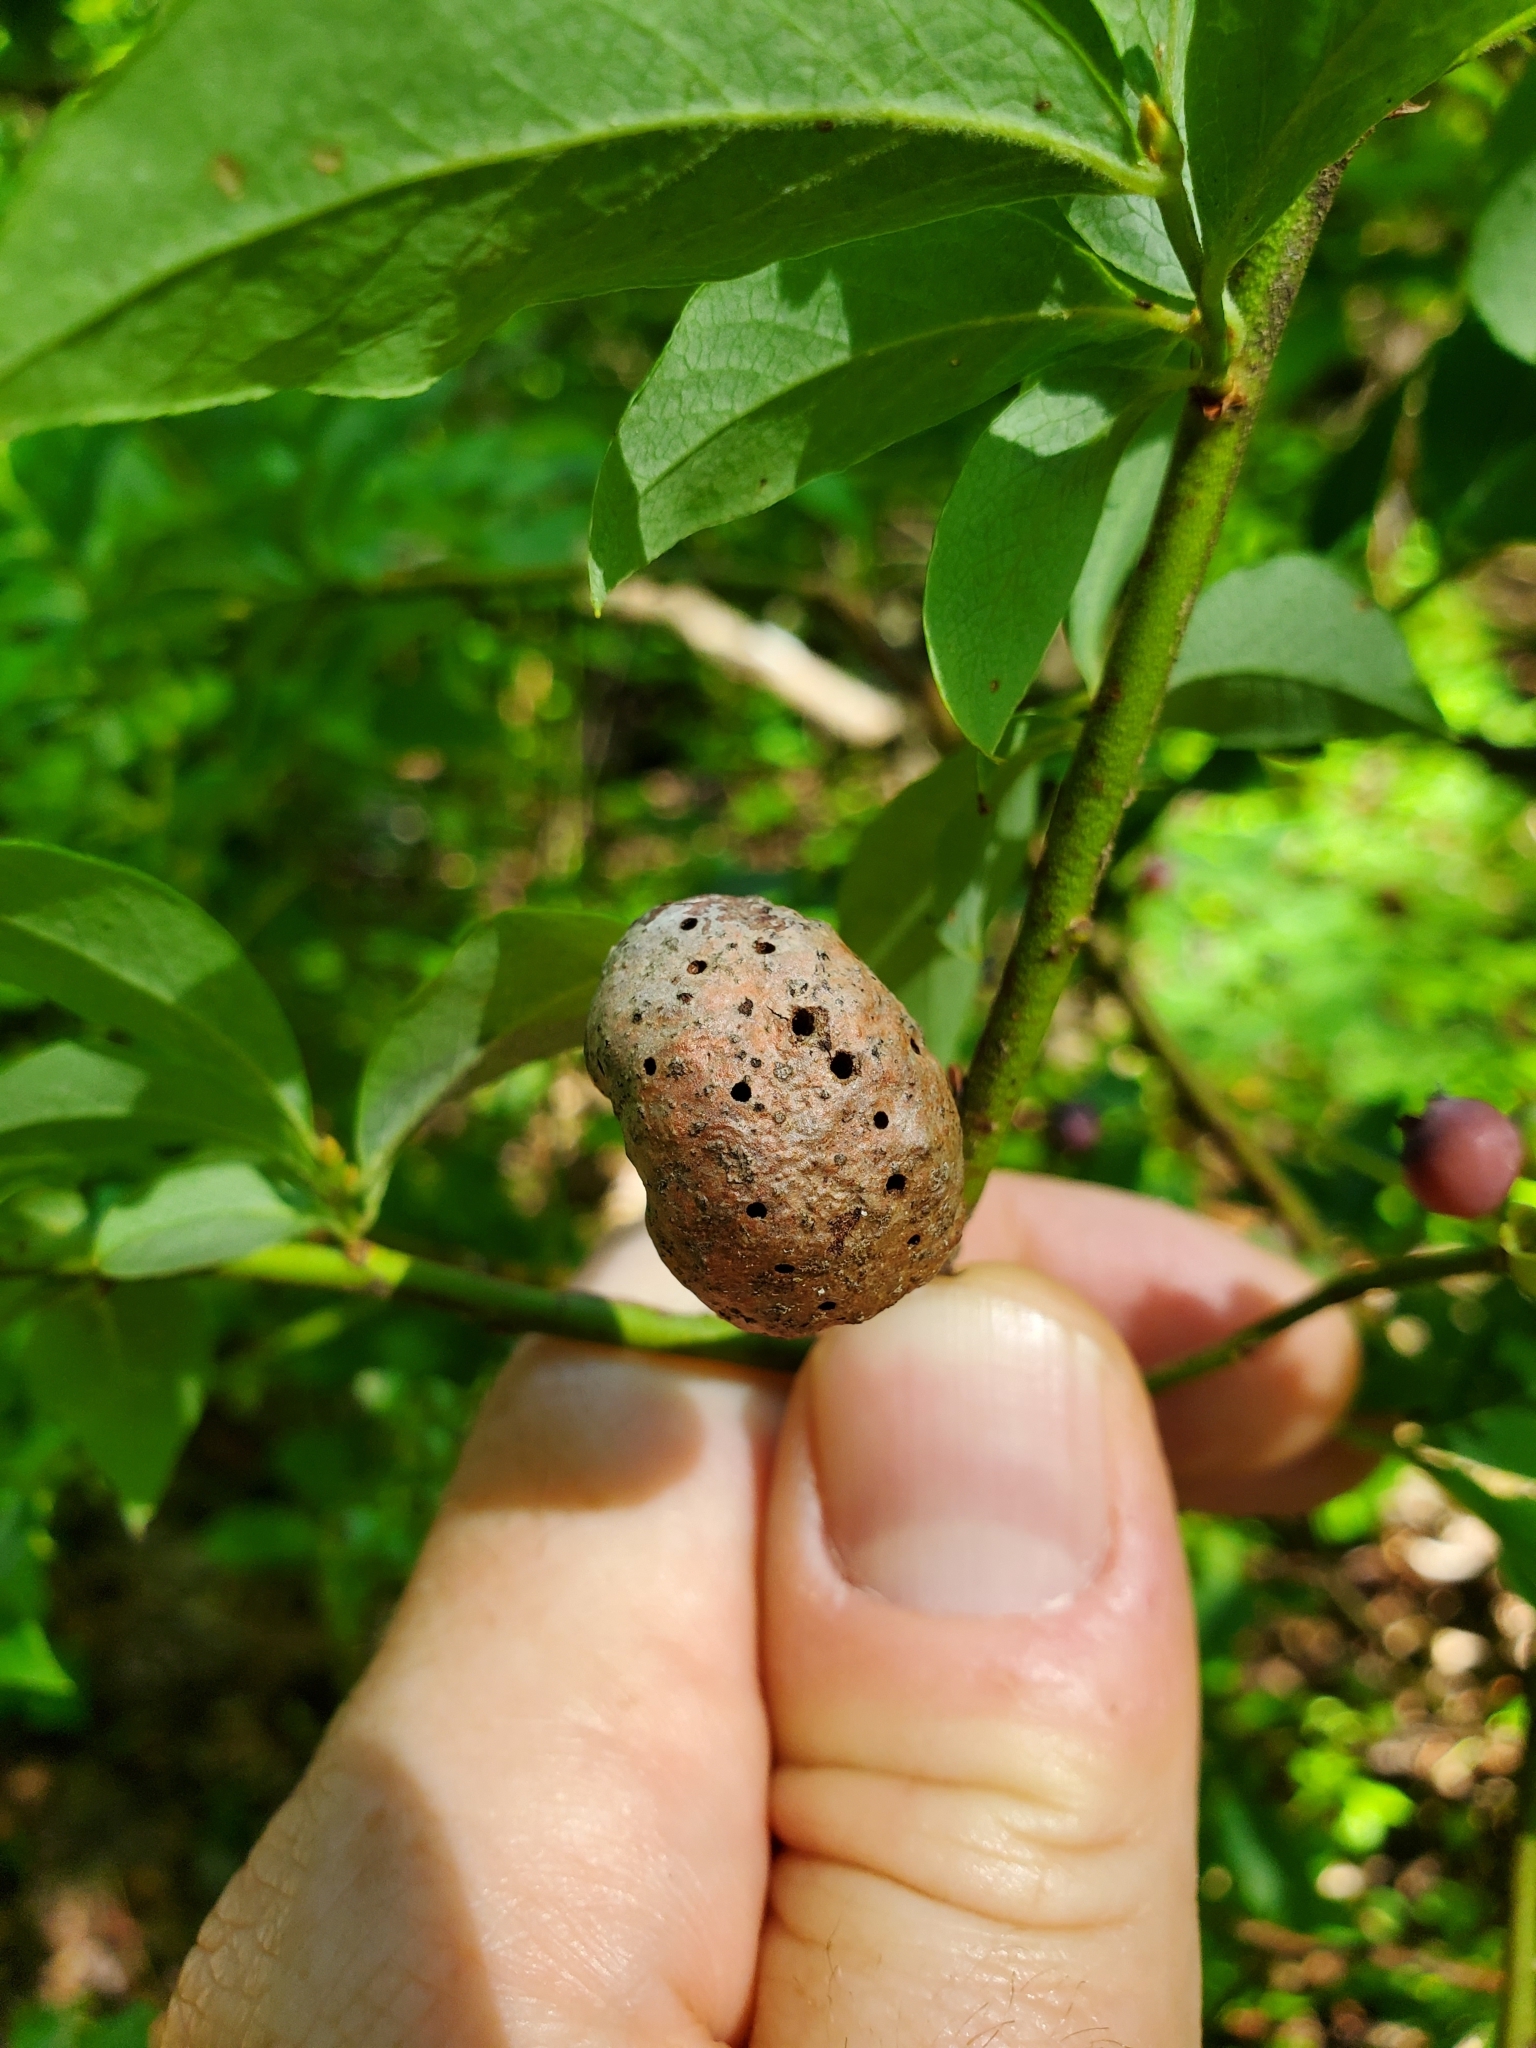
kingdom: Animalia
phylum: Arthropoda
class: Insecta
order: Hymenoptera
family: Pteromalidae
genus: Hemadas
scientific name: Hemadas nubilipennis
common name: Blueberry stem gall wasp
